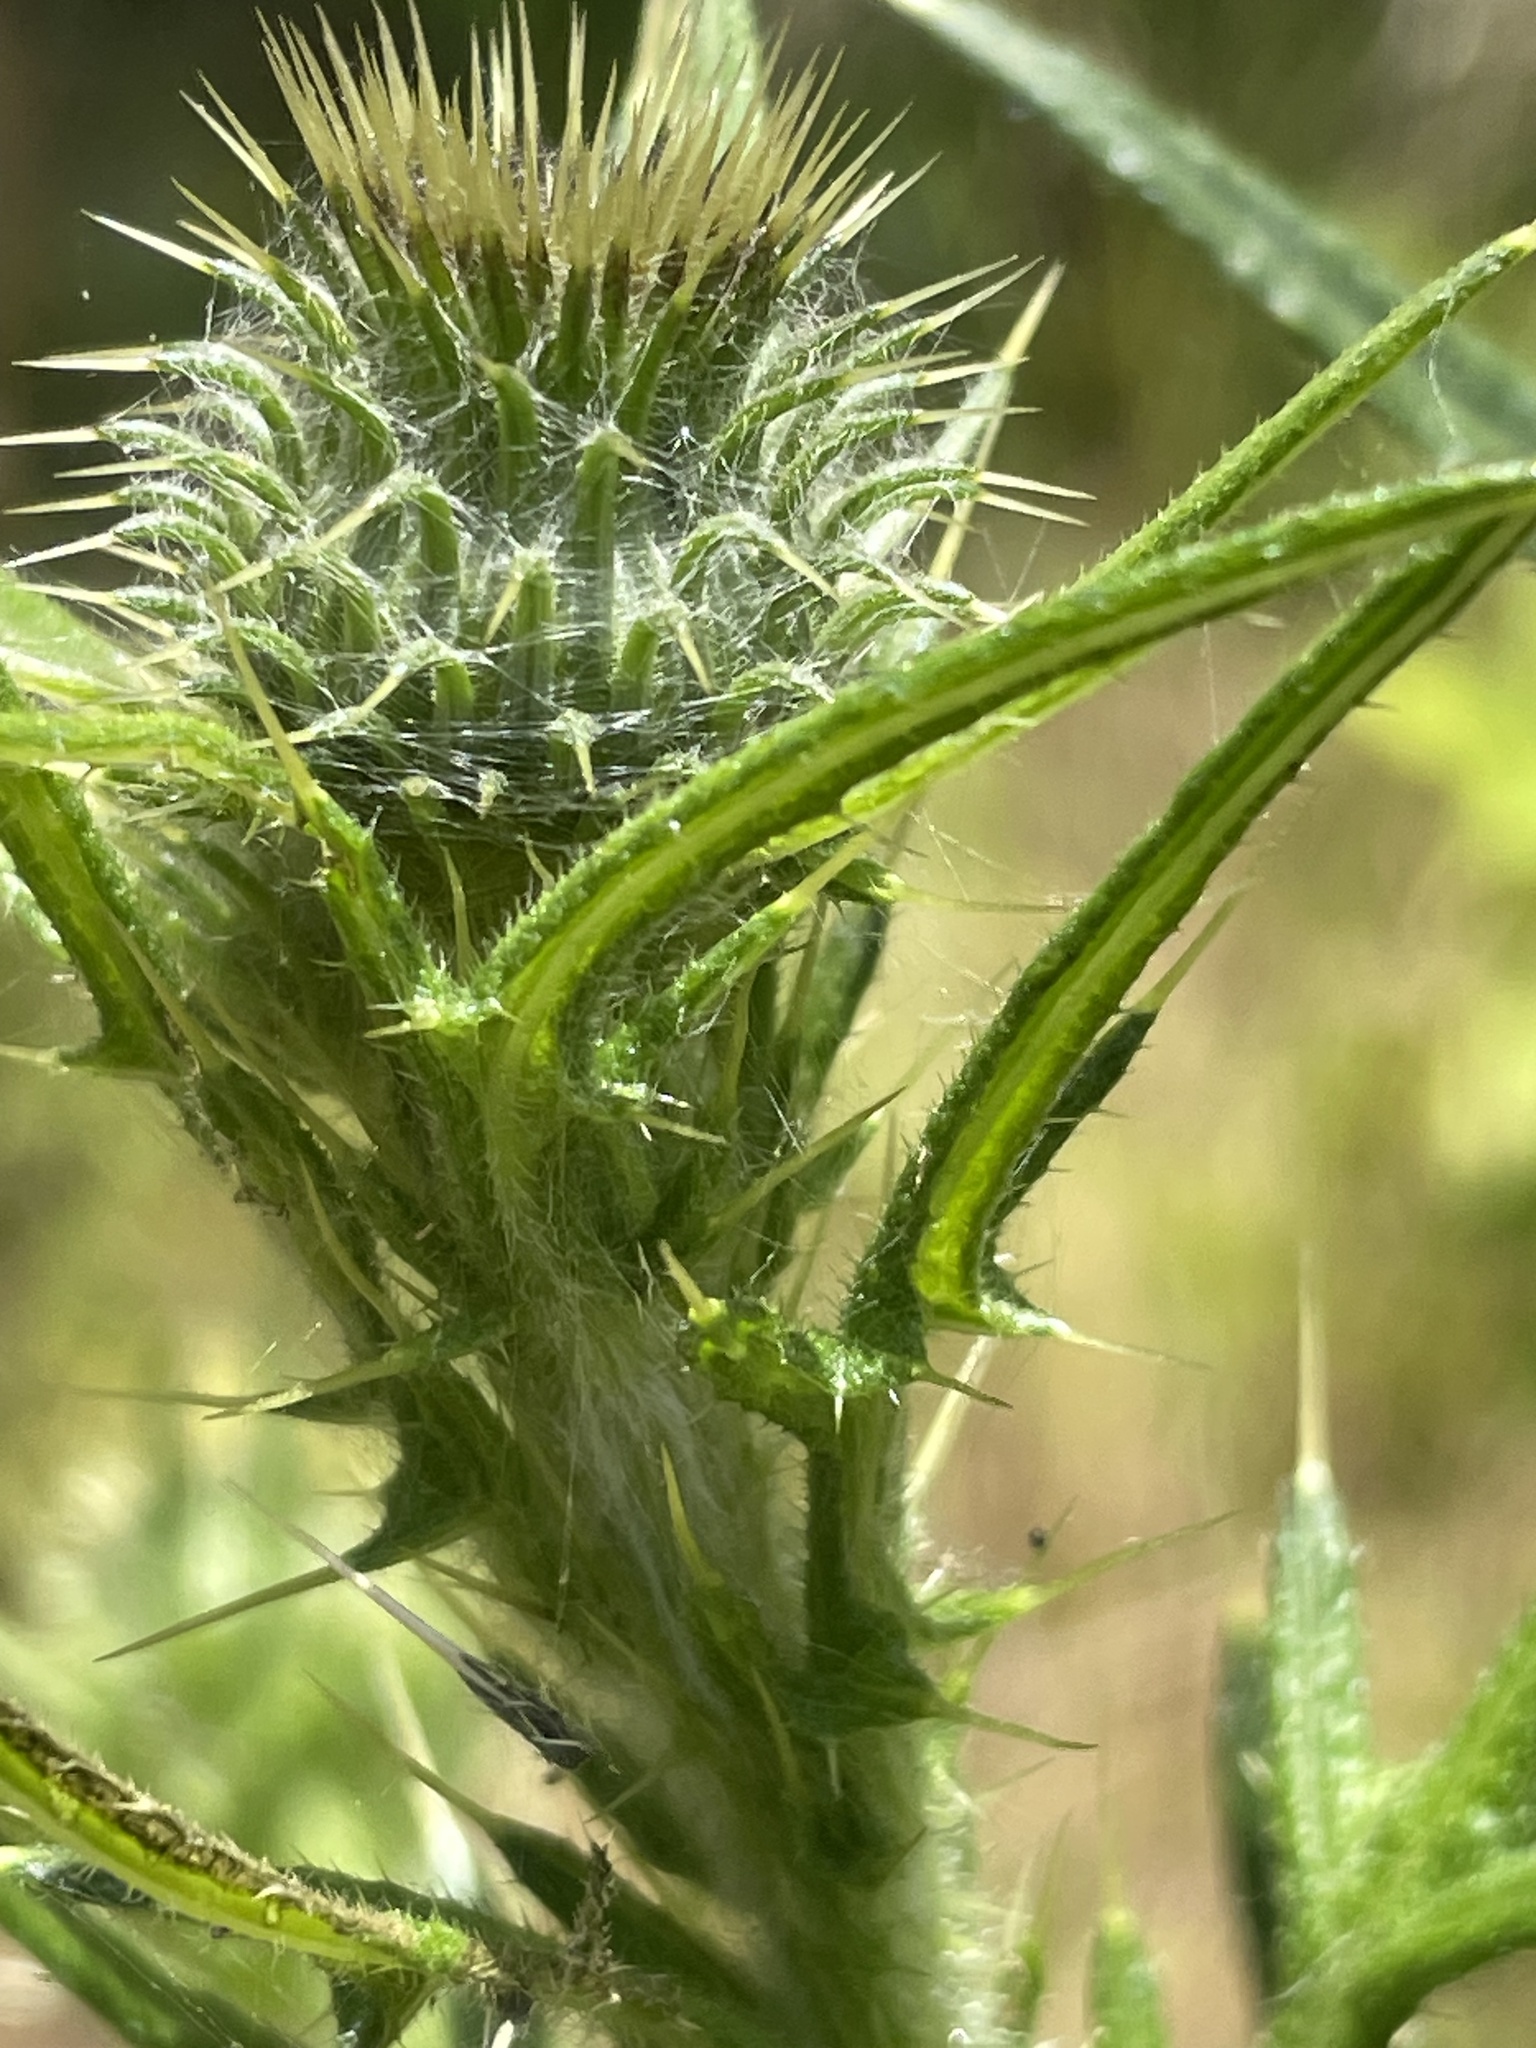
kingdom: Plantae
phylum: Tracheophyta
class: Magnoliopsida
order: Asterales
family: Asteraceae
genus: Cirsium
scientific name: Cirsium vulgare
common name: Bull thistle
